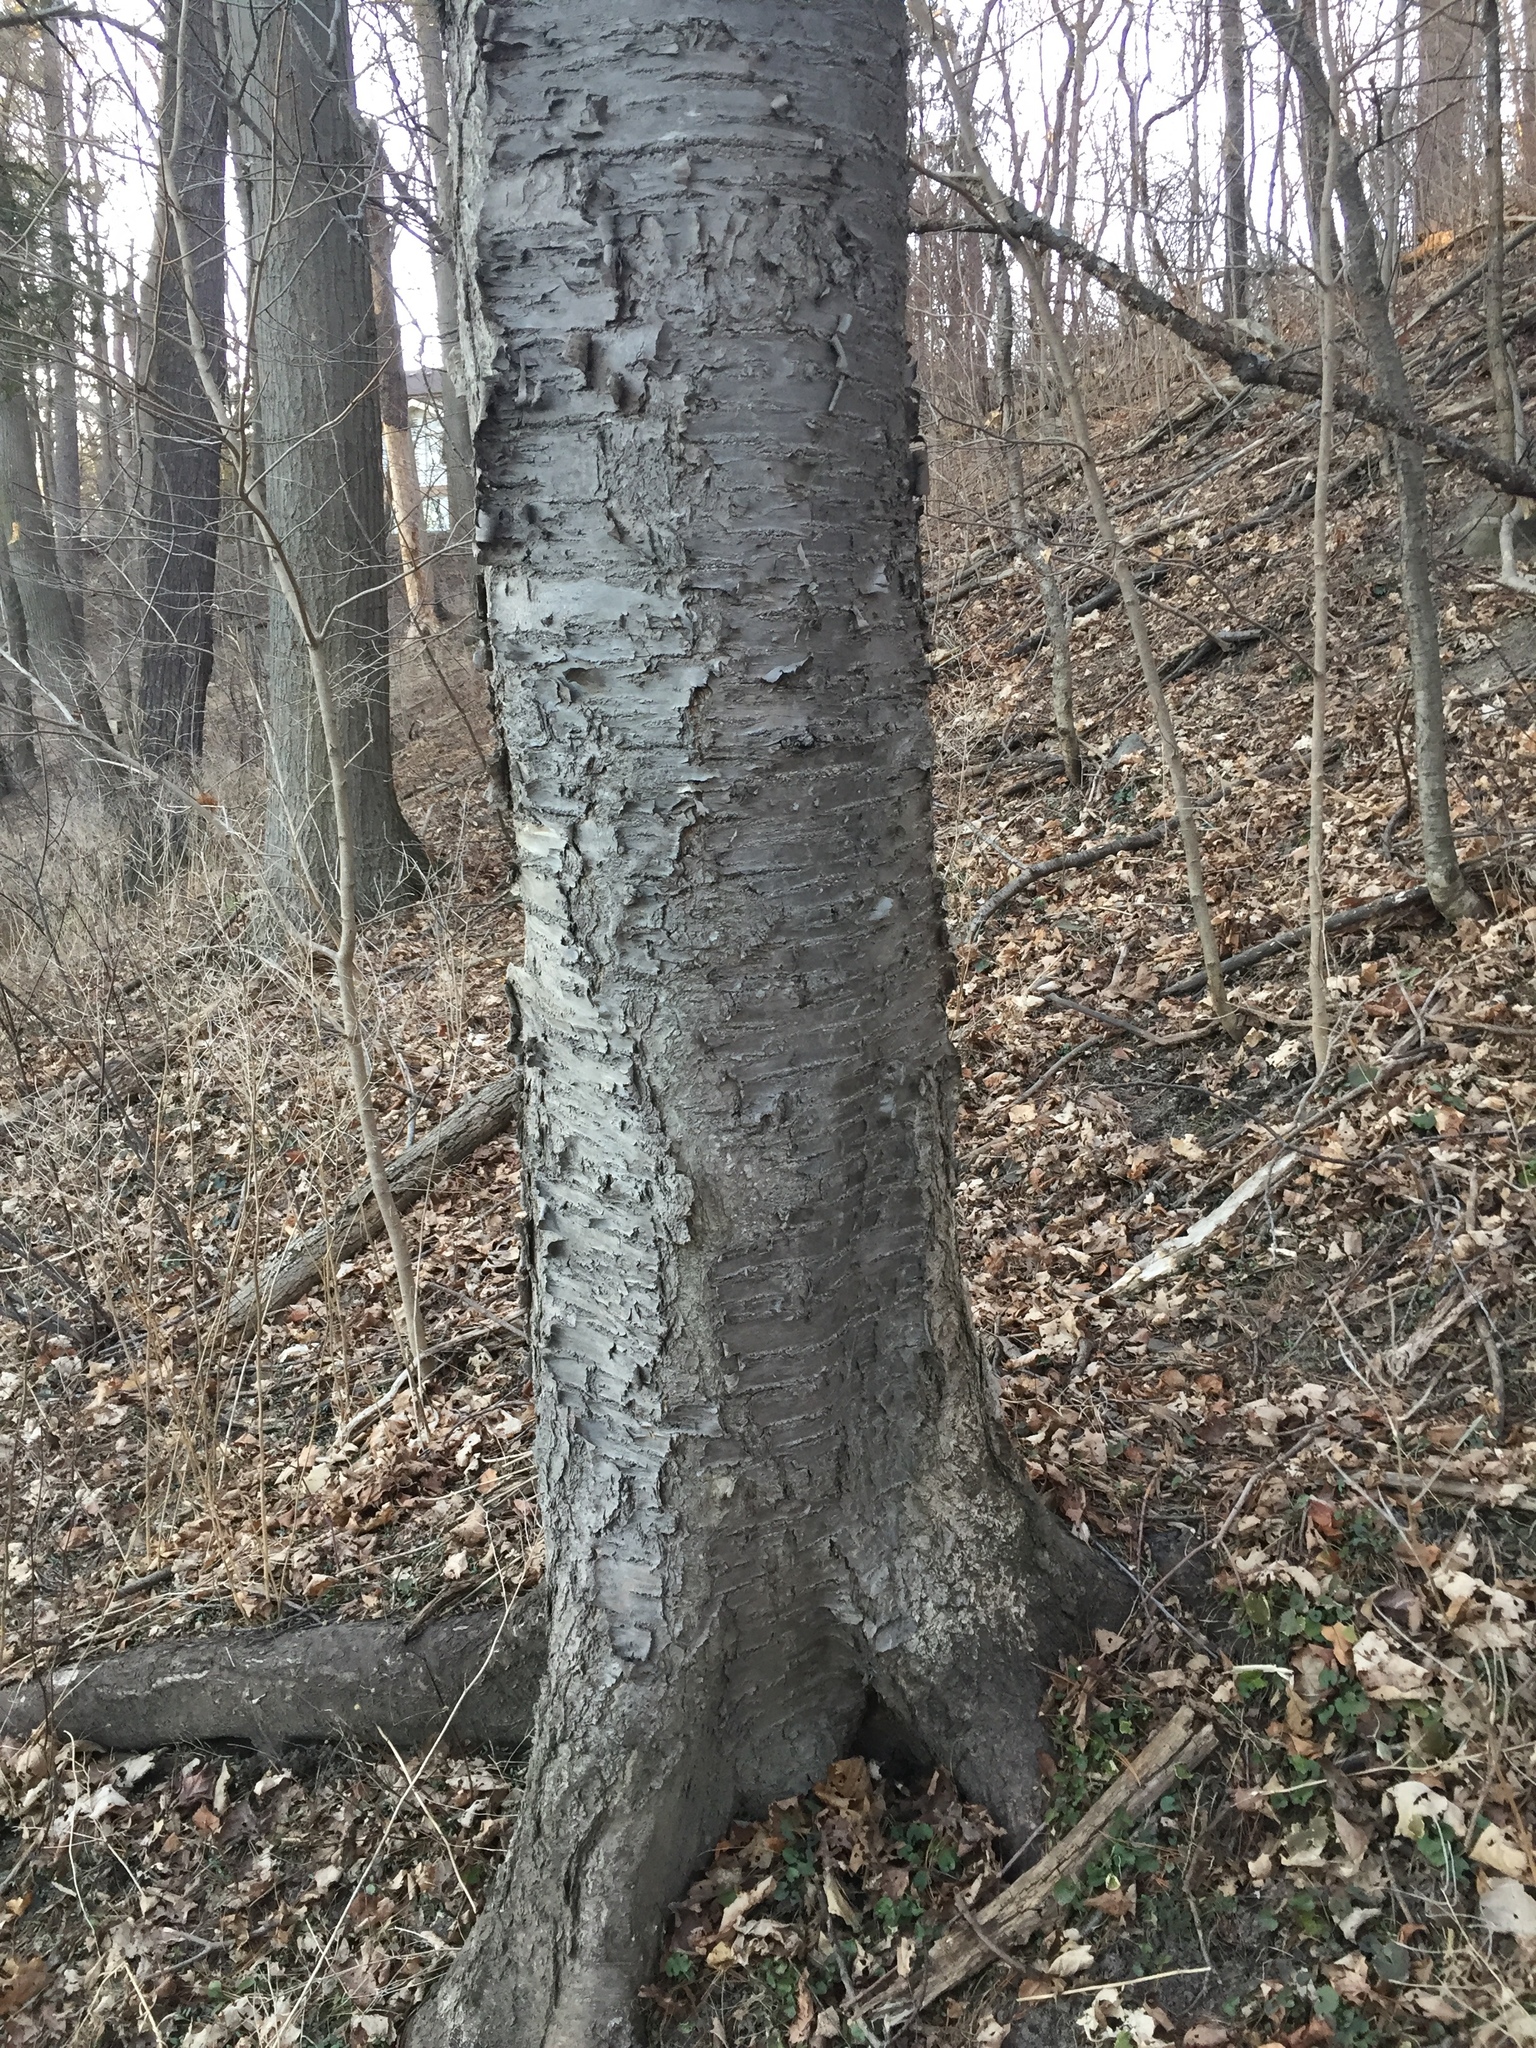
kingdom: Plantae
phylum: Tracheophyta
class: Magnoliopsida
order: Rosales
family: Rosaceae
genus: Prunus
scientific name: Prunus avium
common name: Sweet cherry
